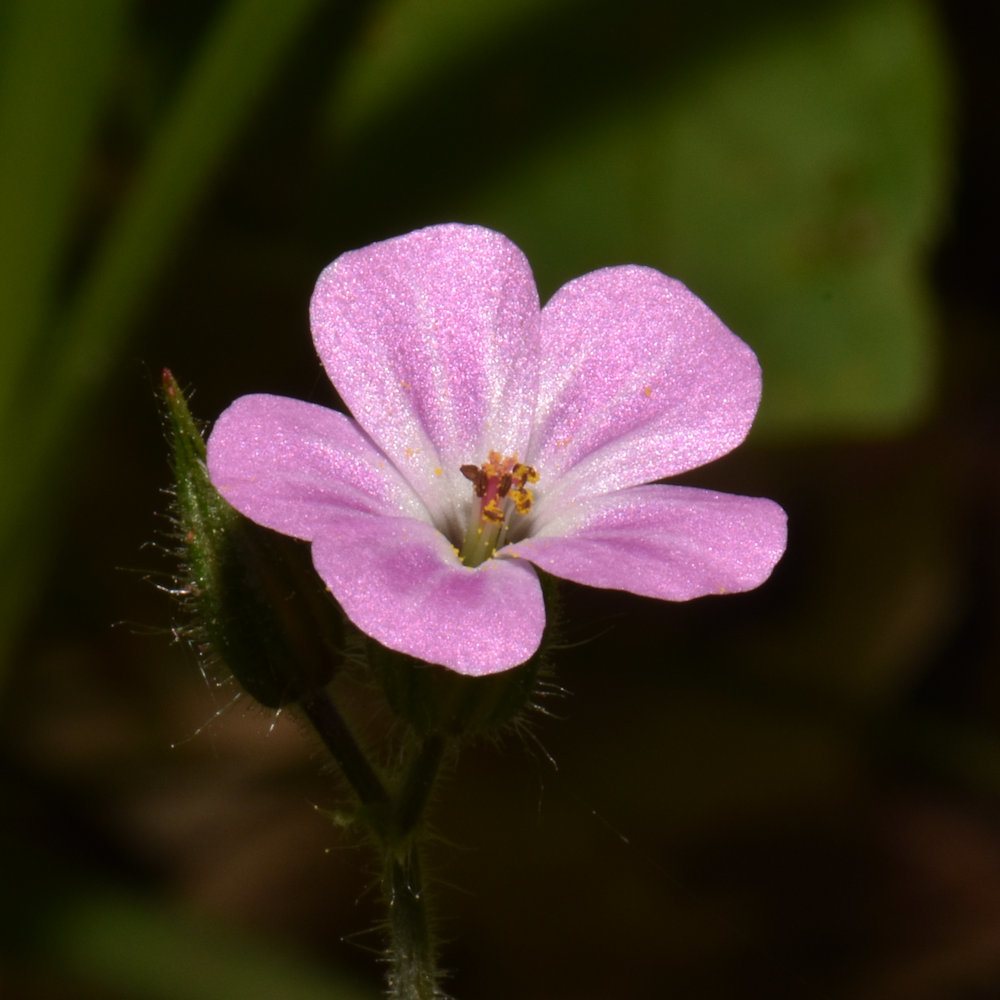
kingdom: Plantae
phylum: Tracheophyta
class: Magnoliopsida
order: Geraniales
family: Geraniaceae
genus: Geranium
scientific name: Geranium robertianum
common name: Herb-robert
